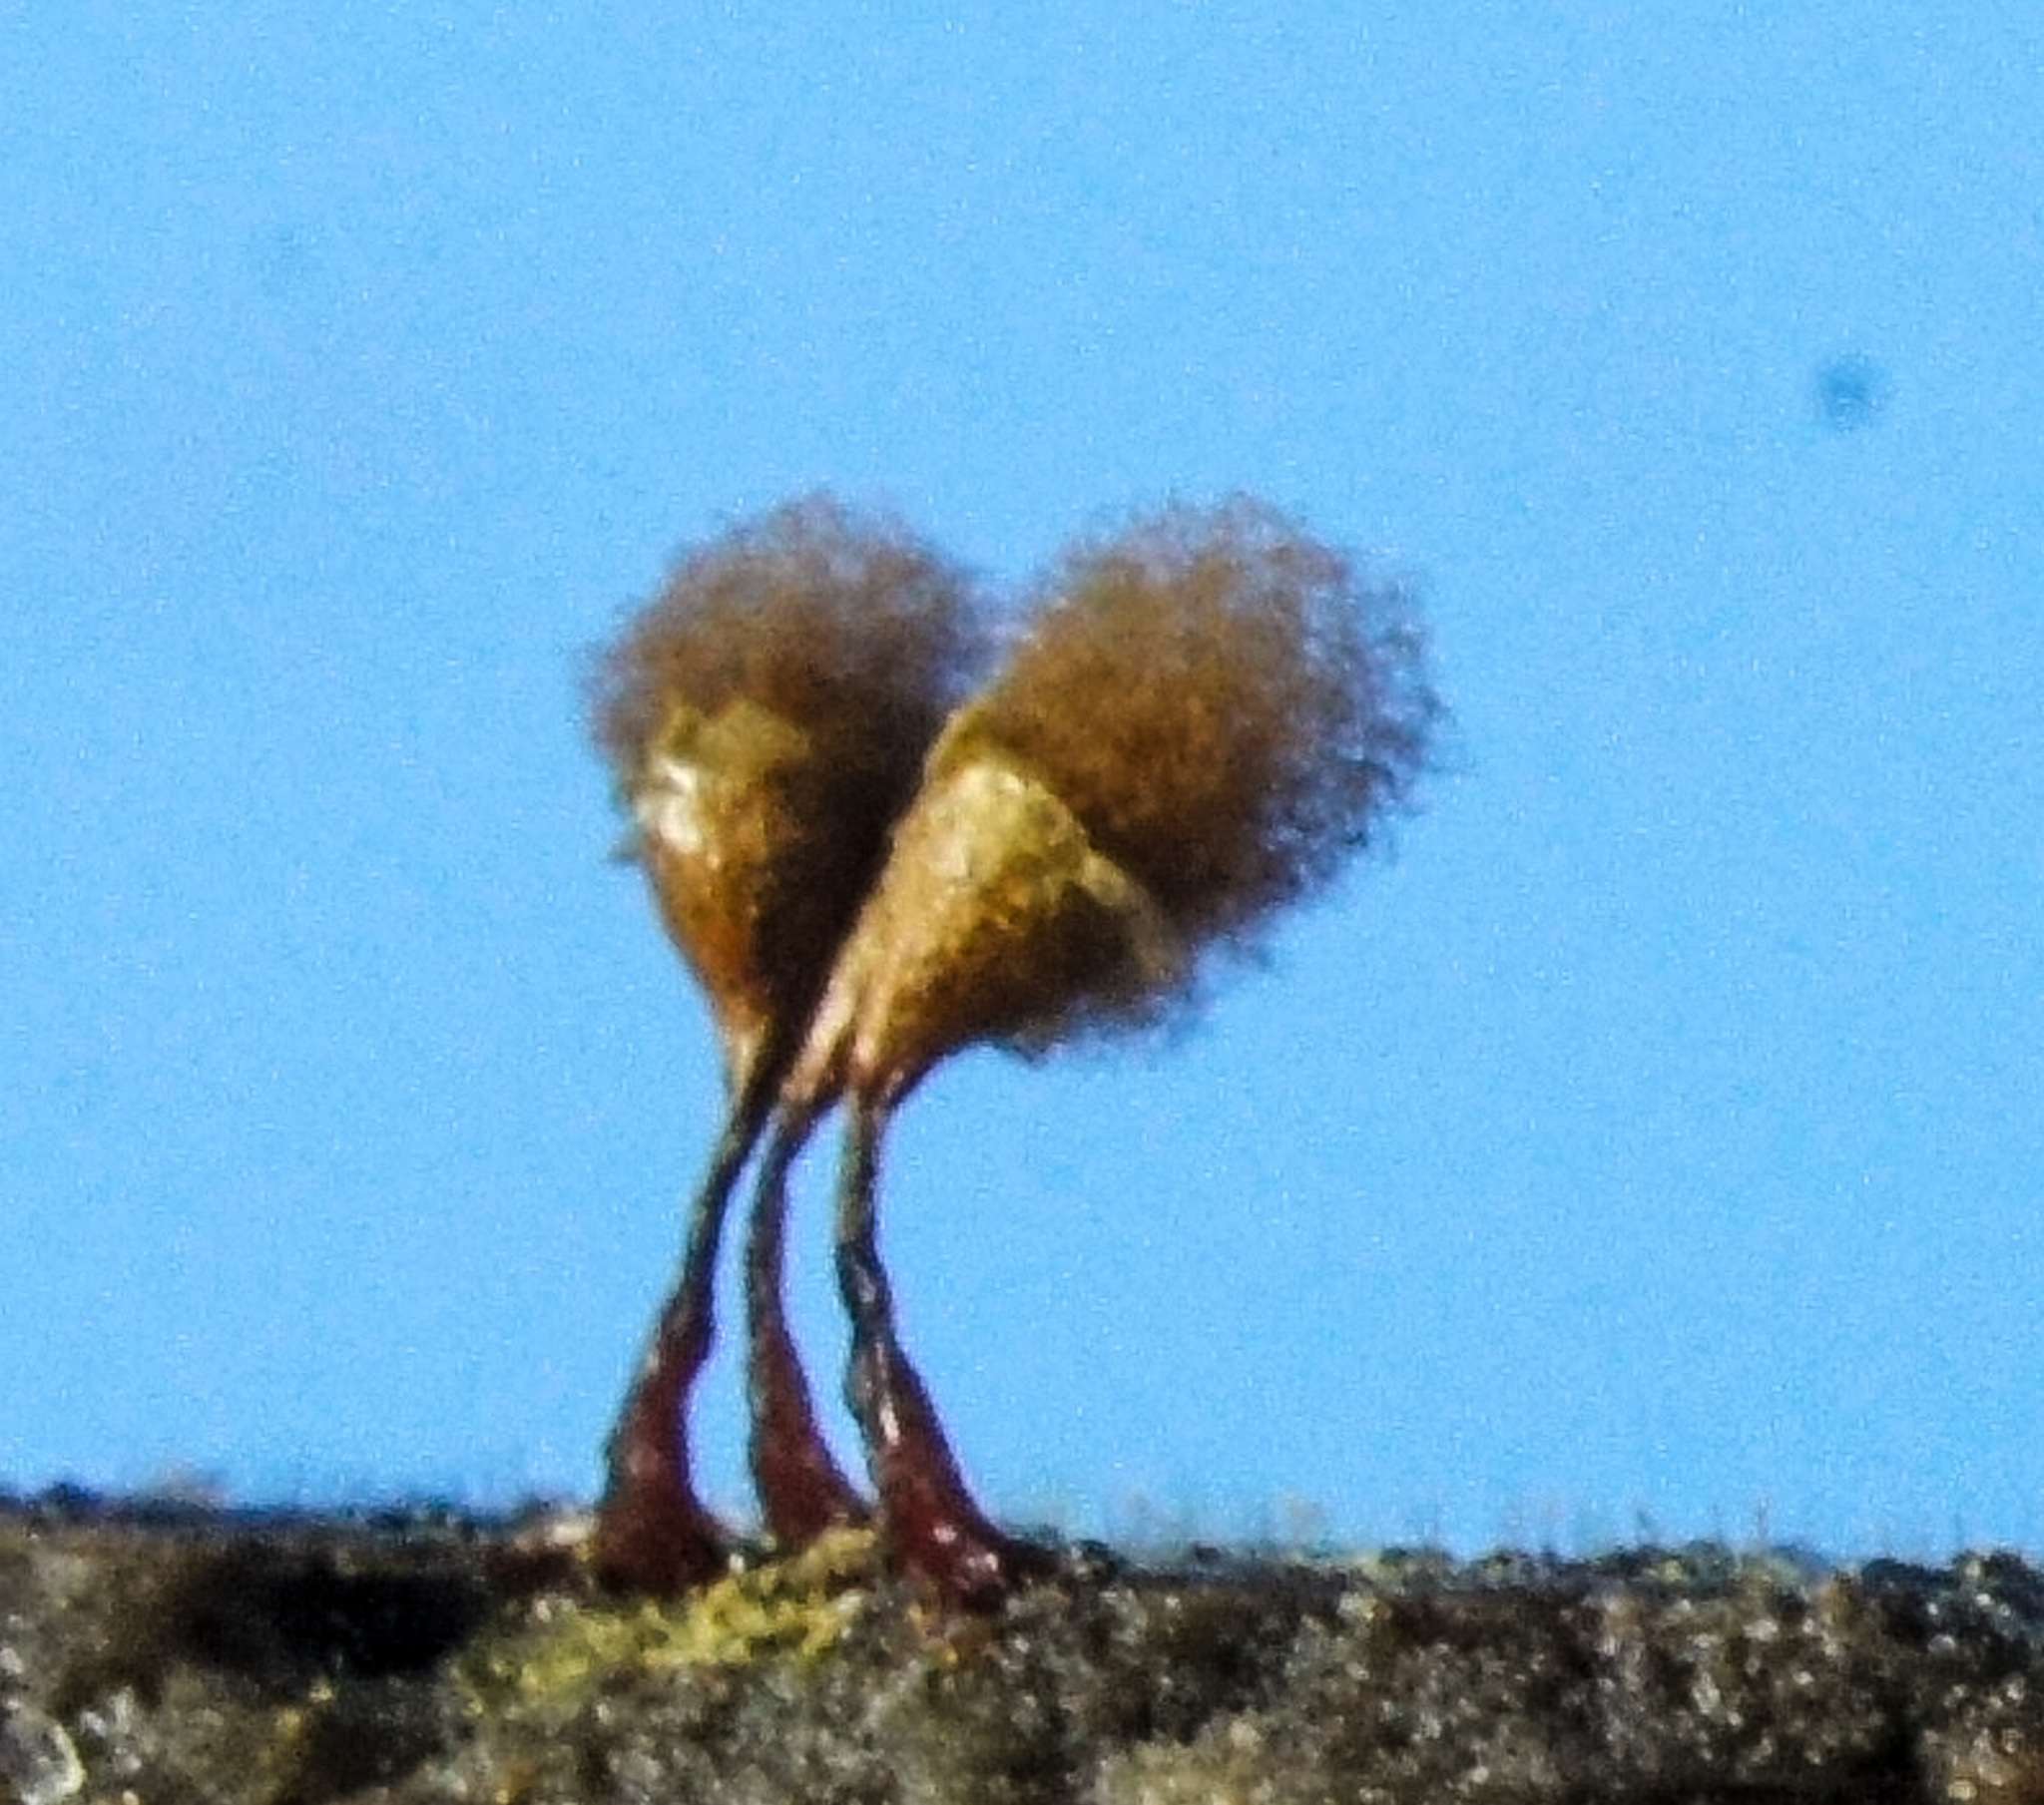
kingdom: Protozoa
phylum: Mycetozoa
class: Myxomycetes
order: Trichiales
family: Arcyriaceae
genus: Hemitrichia
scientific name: Hemitrichia calyculata
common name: Push pin slime mold
